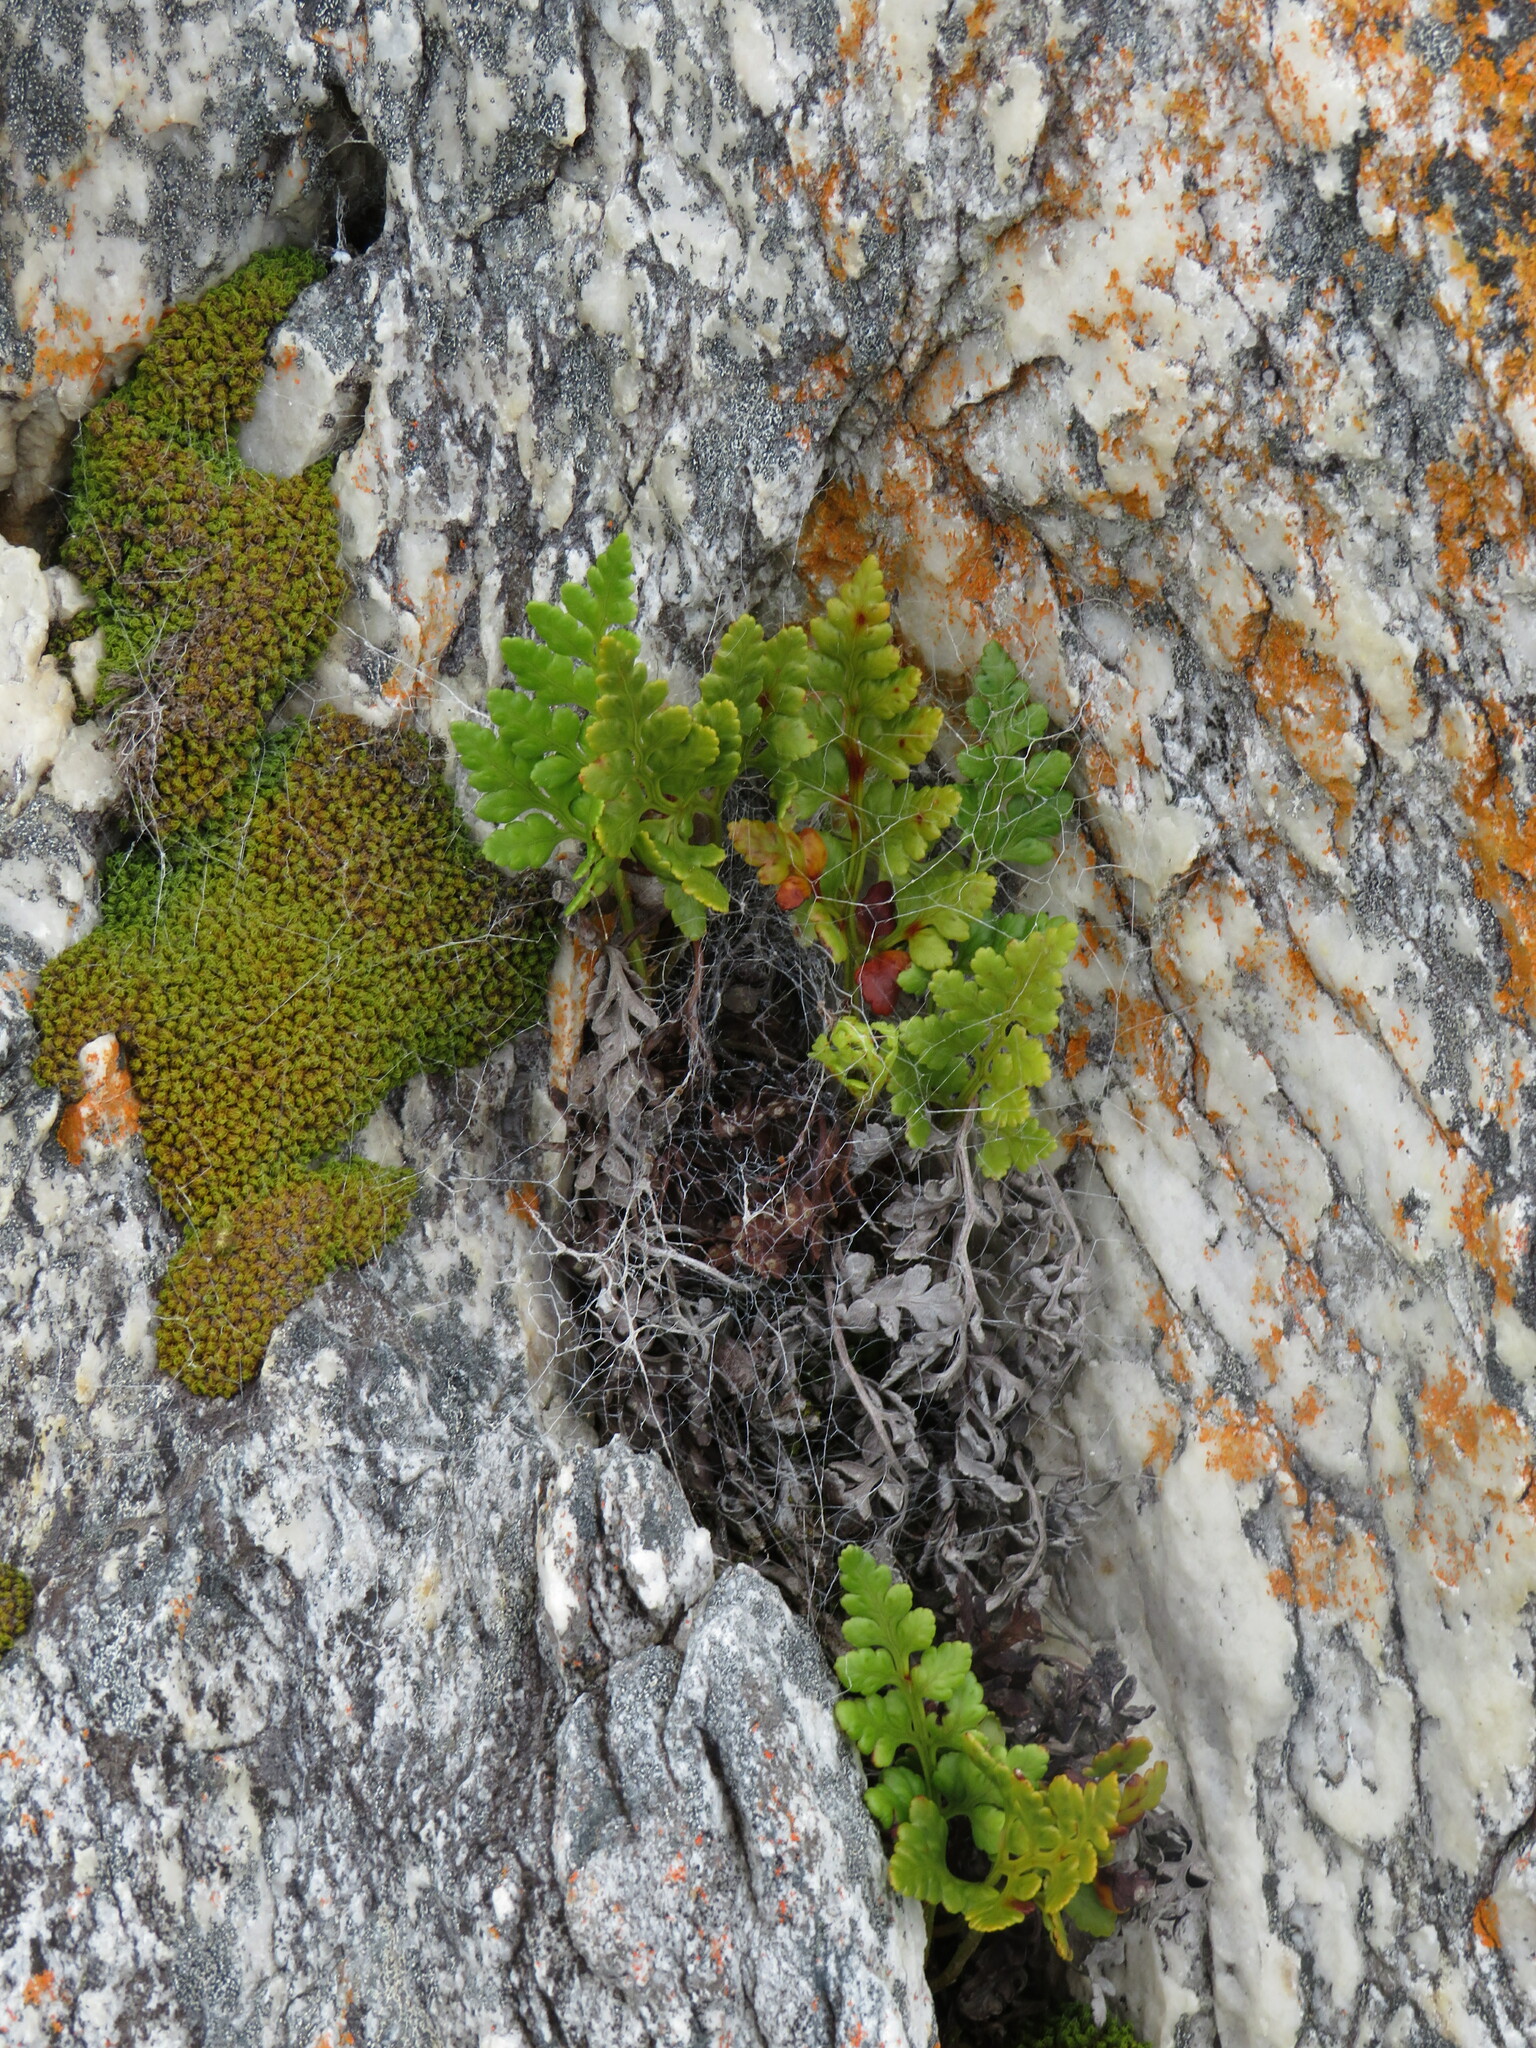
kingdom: Plantae
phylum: Tracheophyta
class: Polypodiopsida
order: Polypodiales
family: Dryopteridaceae
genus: Rumohra
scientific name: Rumohra adiantiformis
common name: Leather fern
